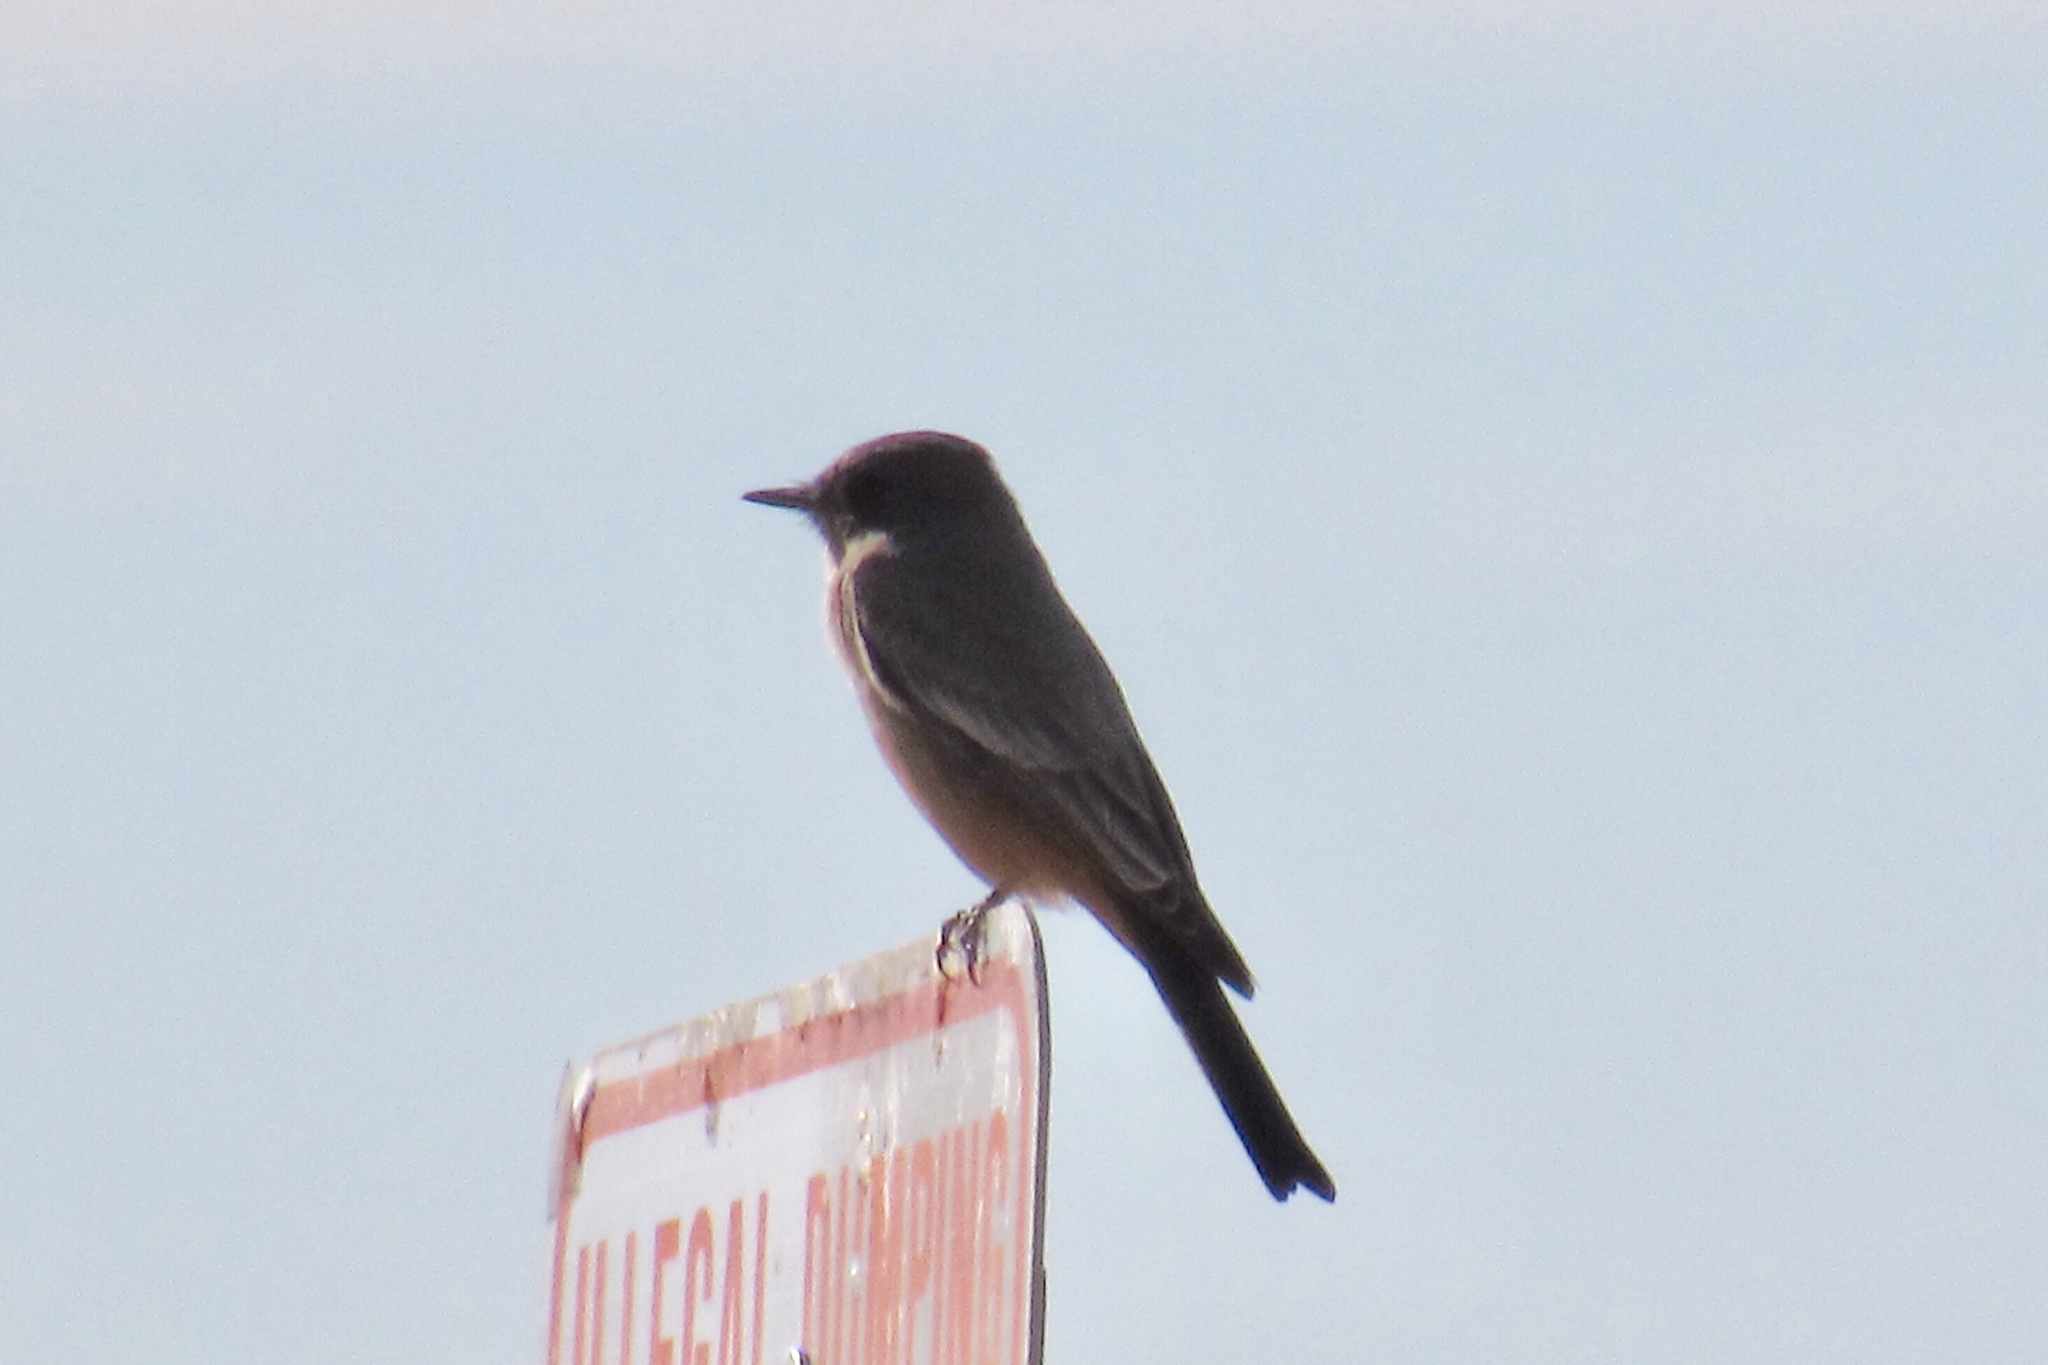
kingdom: Animalia
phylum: Chordata
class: Aves
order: Passeriformes
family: Tyrannidae
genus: Sayornis
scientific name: Sayornis saya
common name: Say's phoebe
